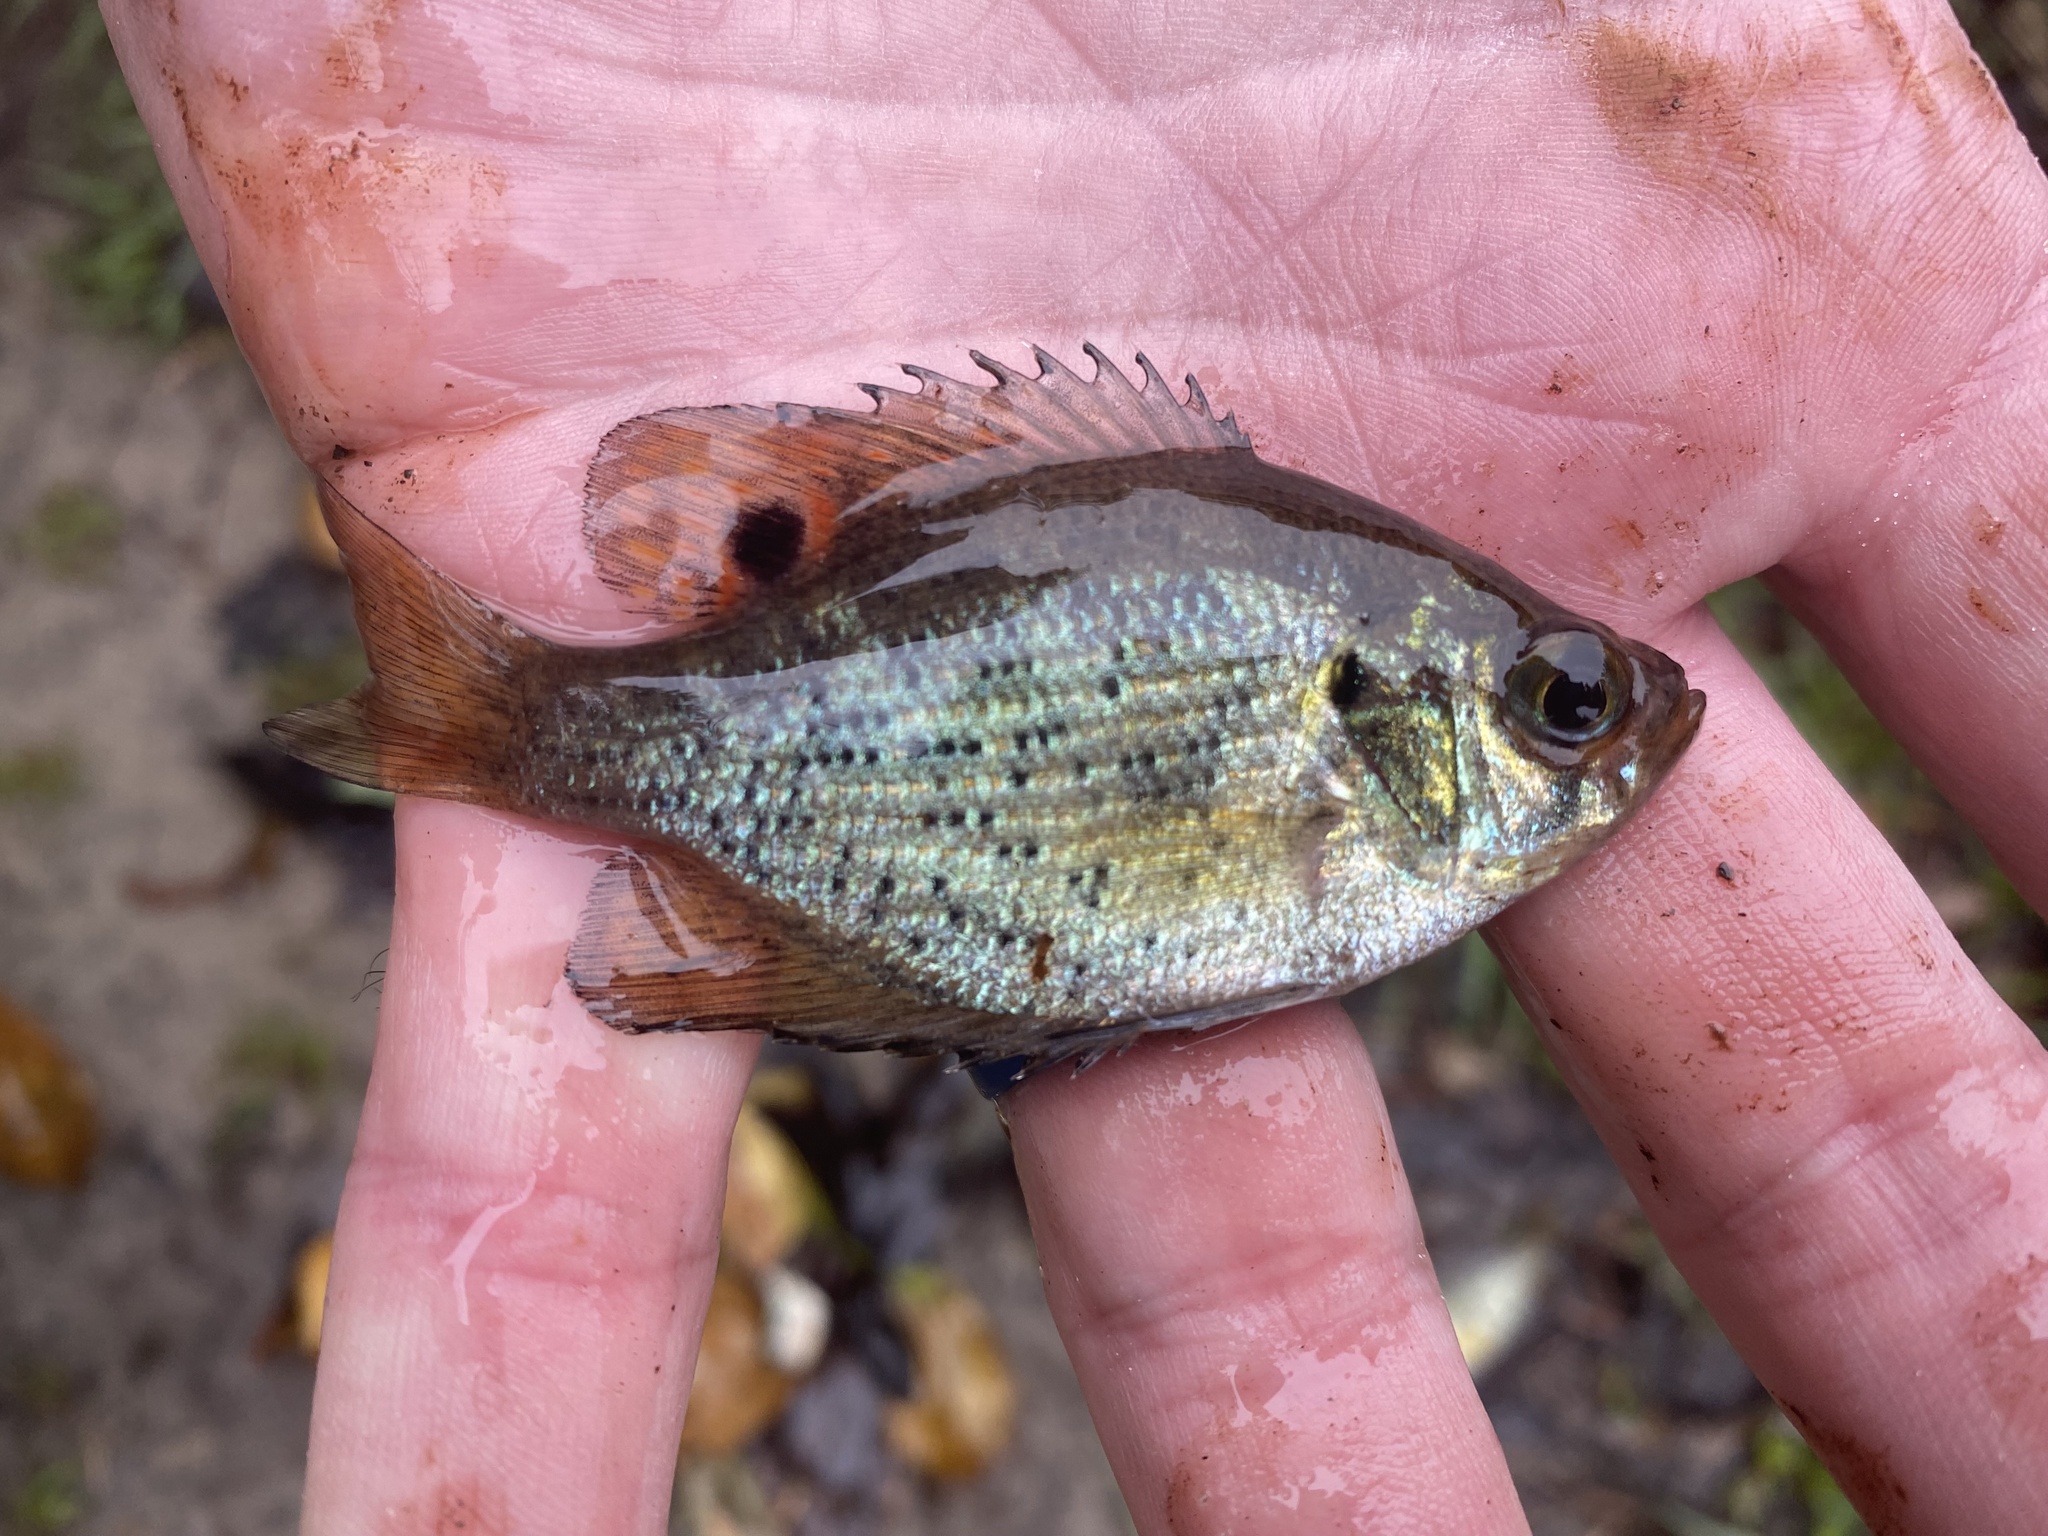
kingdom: Animalia
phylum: Chordata
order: Perciformes
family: Centrarchidae
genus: Centrarchus
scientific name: Centrarchus macropterus
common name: Flier
